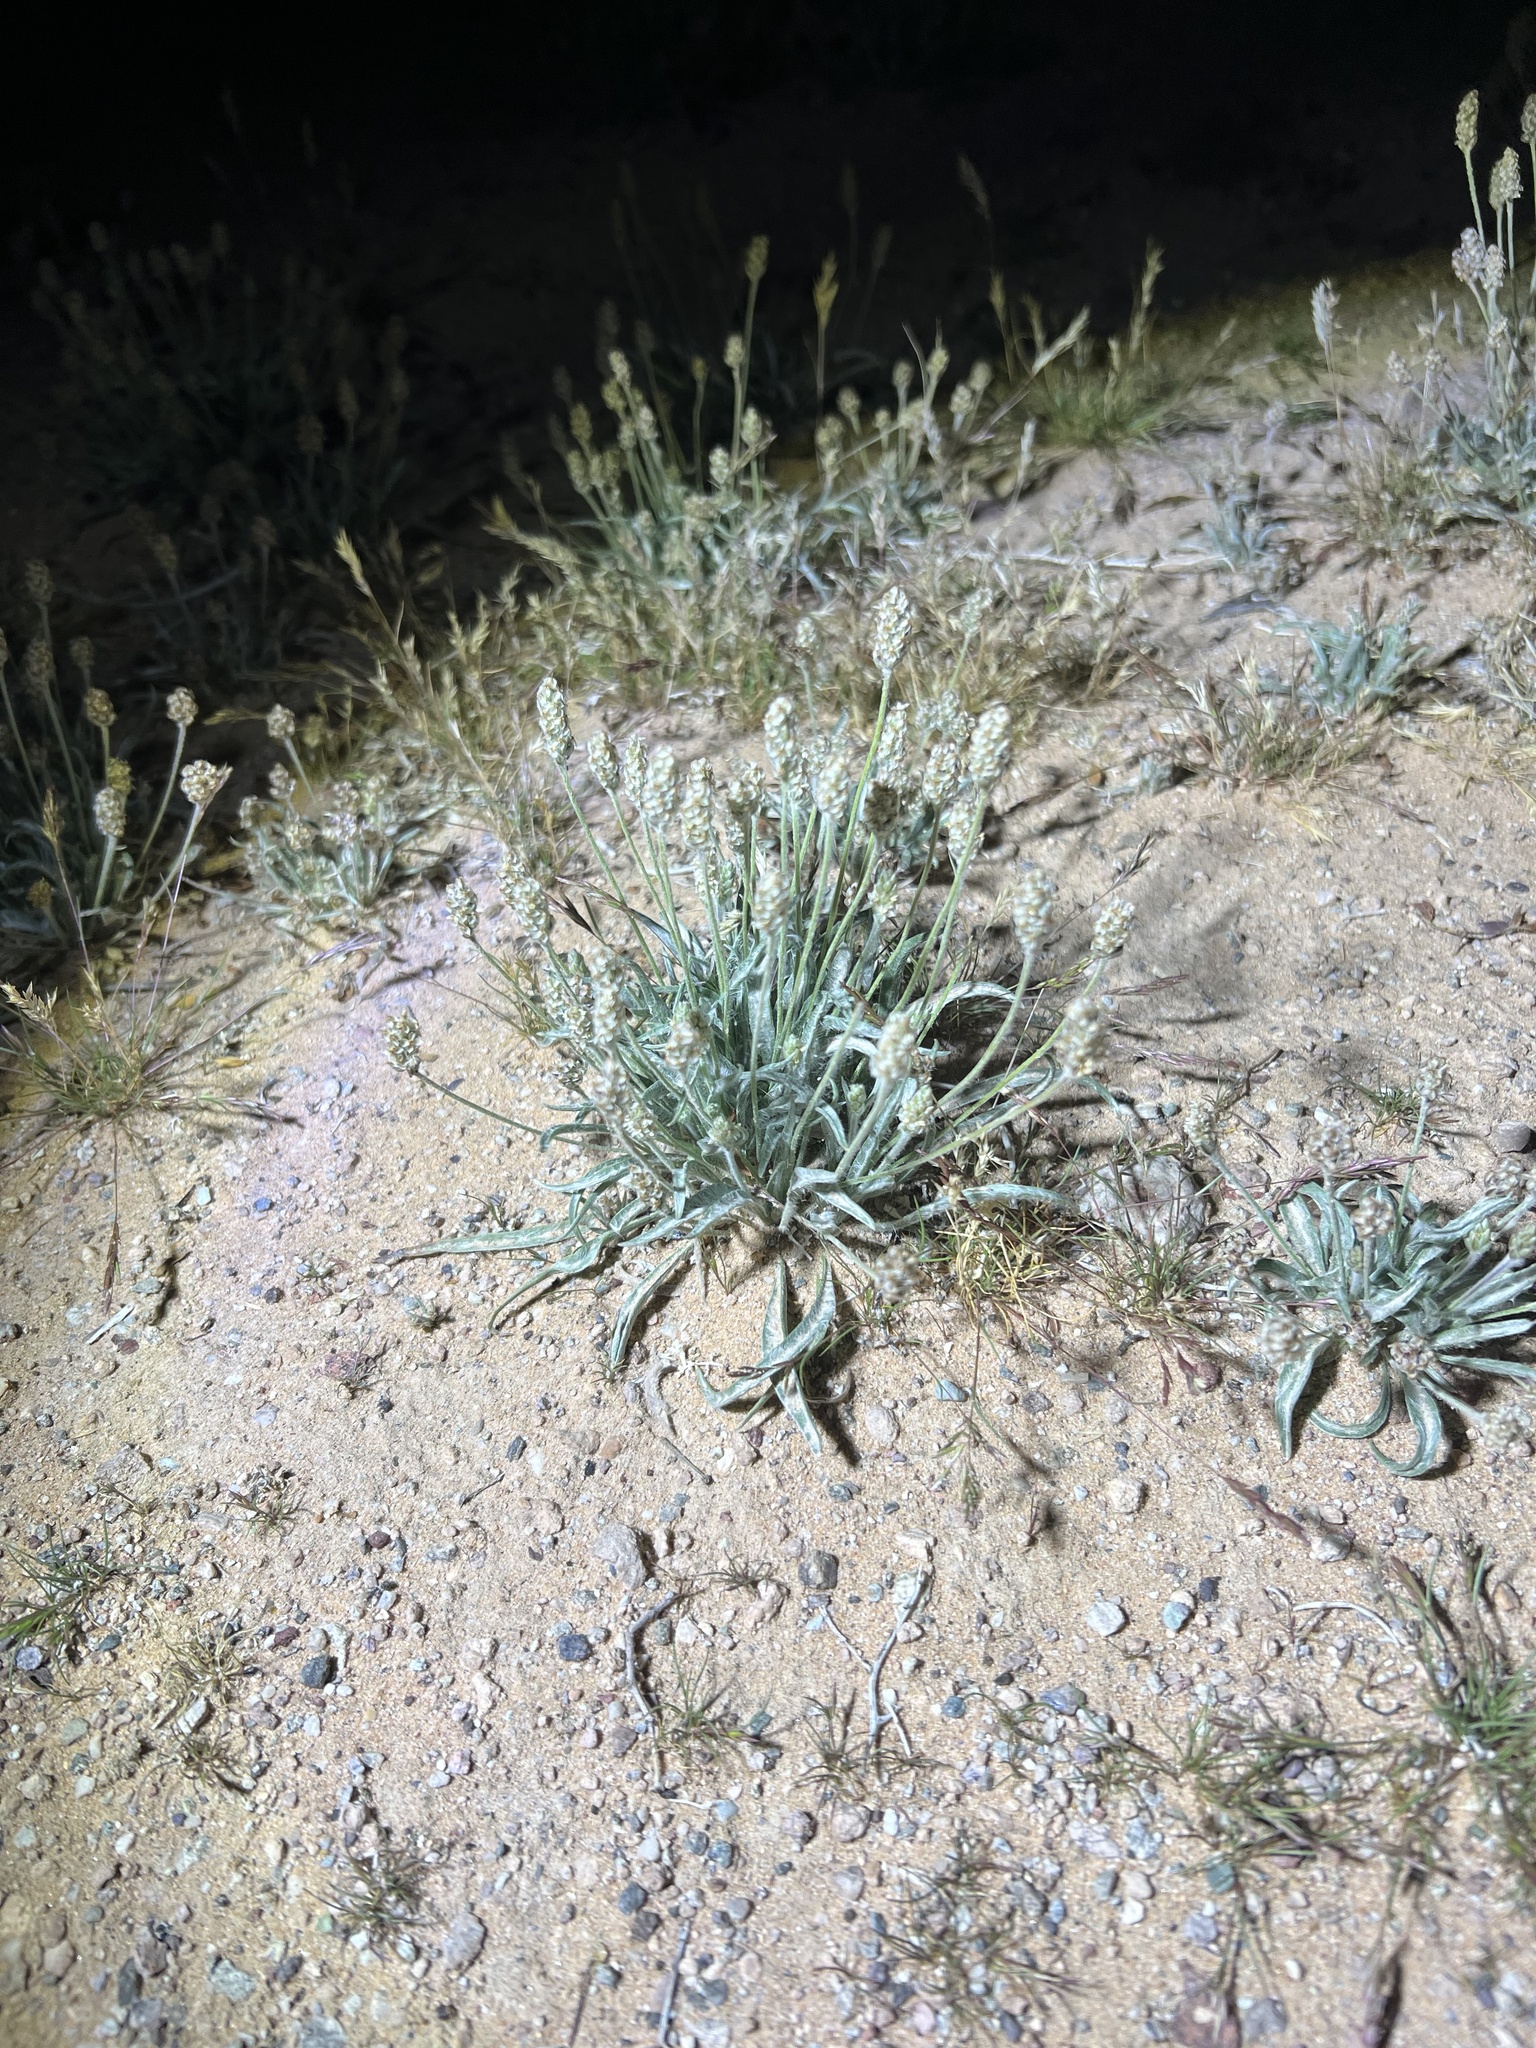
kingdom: Plantae
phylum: Tracheophyta
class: Magnoliopsida
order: Lamiales
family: Plantaginaceae
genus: Plantago
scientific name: Plantago ovata
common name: Blond plantain
